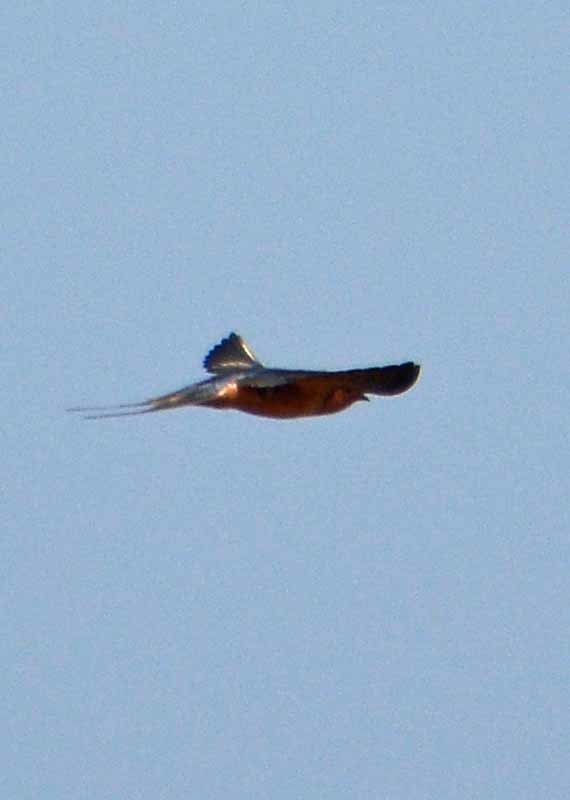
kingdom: Animalia
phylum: Chordata
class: Aves
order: Passeriformes
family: Hirundinidae
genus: Hirundo
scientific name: Hirundo rustica
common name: Barn swallow
